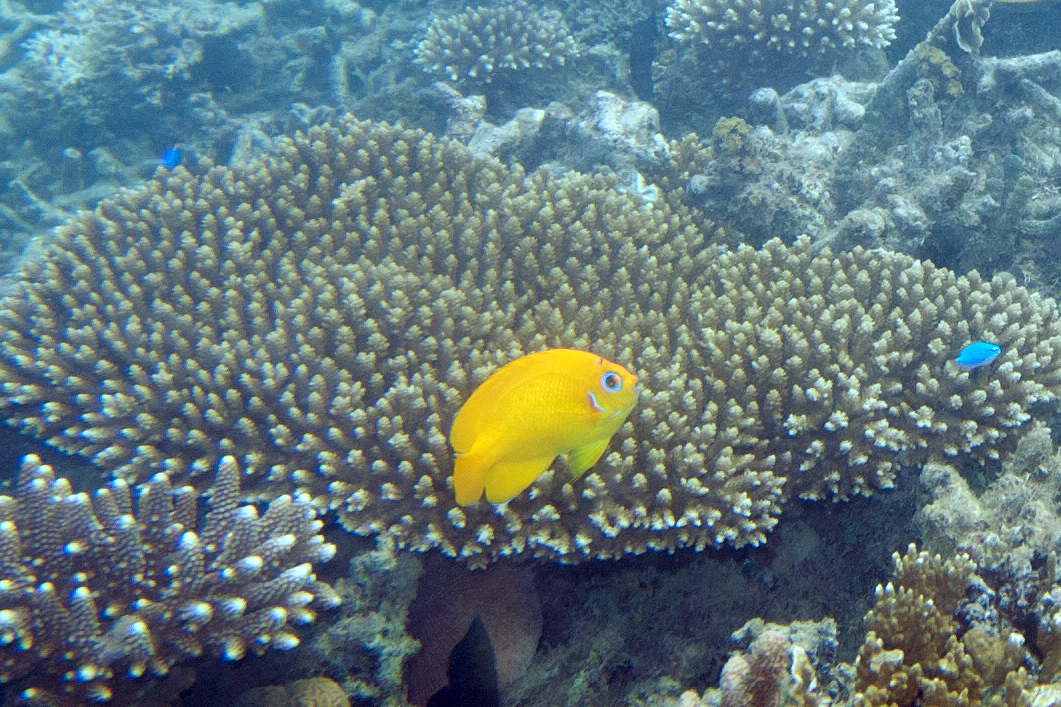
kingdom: Animalia
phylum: Chordata
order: Perciformes
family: Pomacanthidae
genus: Centropyge
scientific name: Centropyge flavissima
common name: Lemonpeel angelfish
